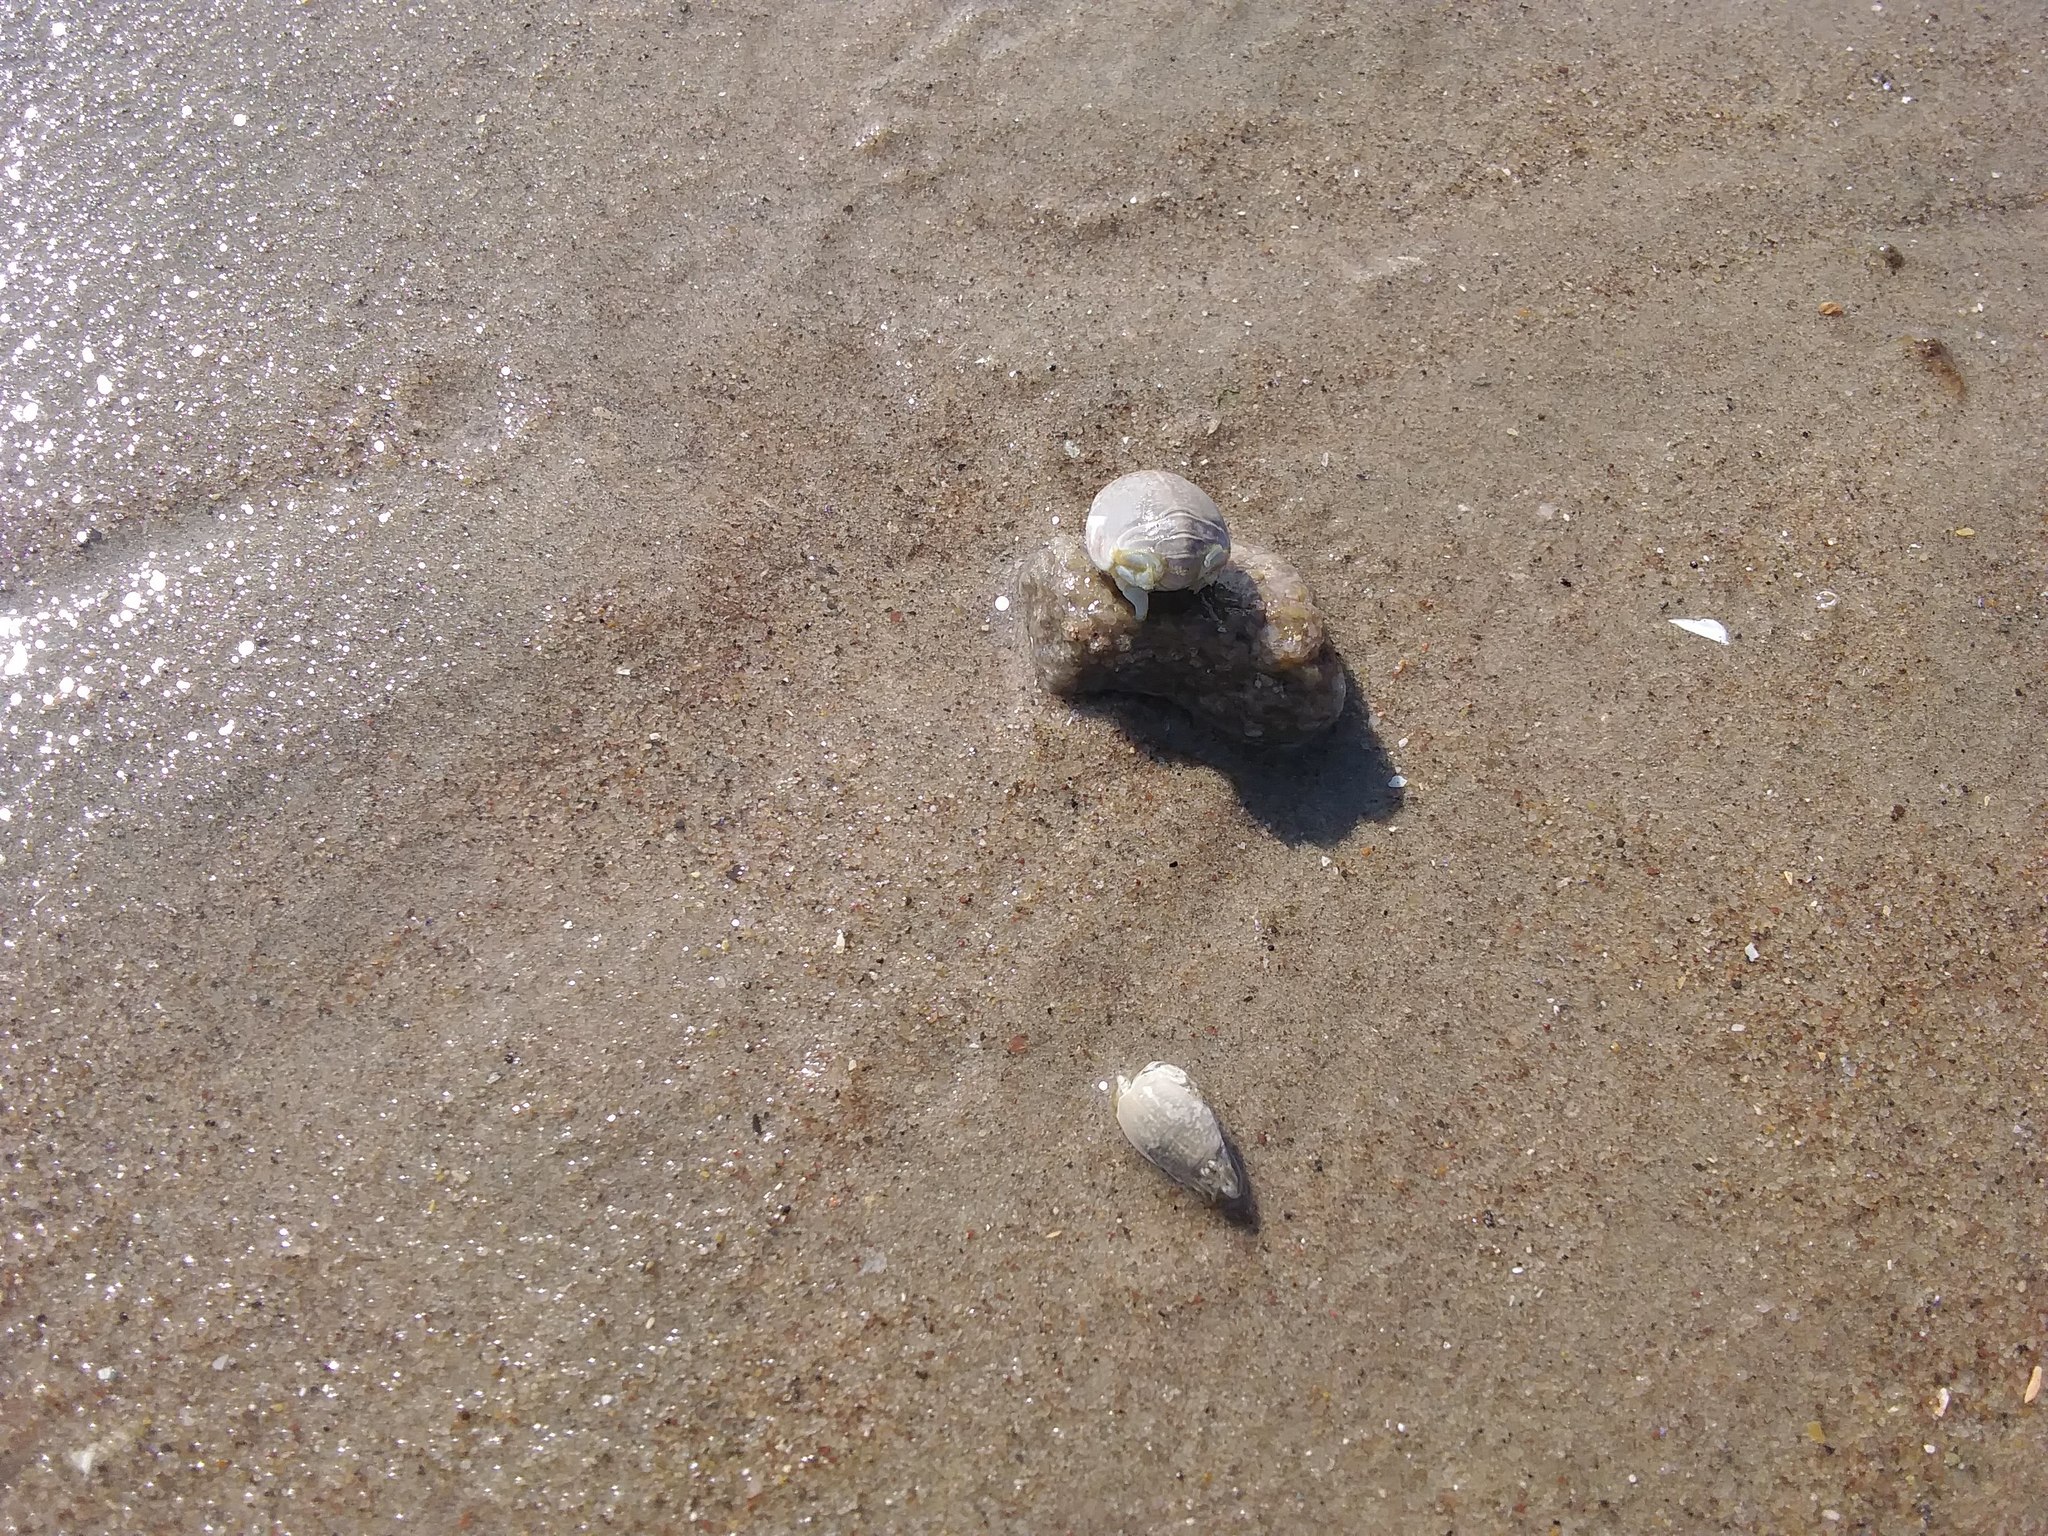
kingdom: Animalia
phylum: Arthropoda
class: Malacostraca
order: Decapoda
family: Hippidae
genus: Emerita
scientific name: Emerita talpoida
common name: Atlantic sand crab
